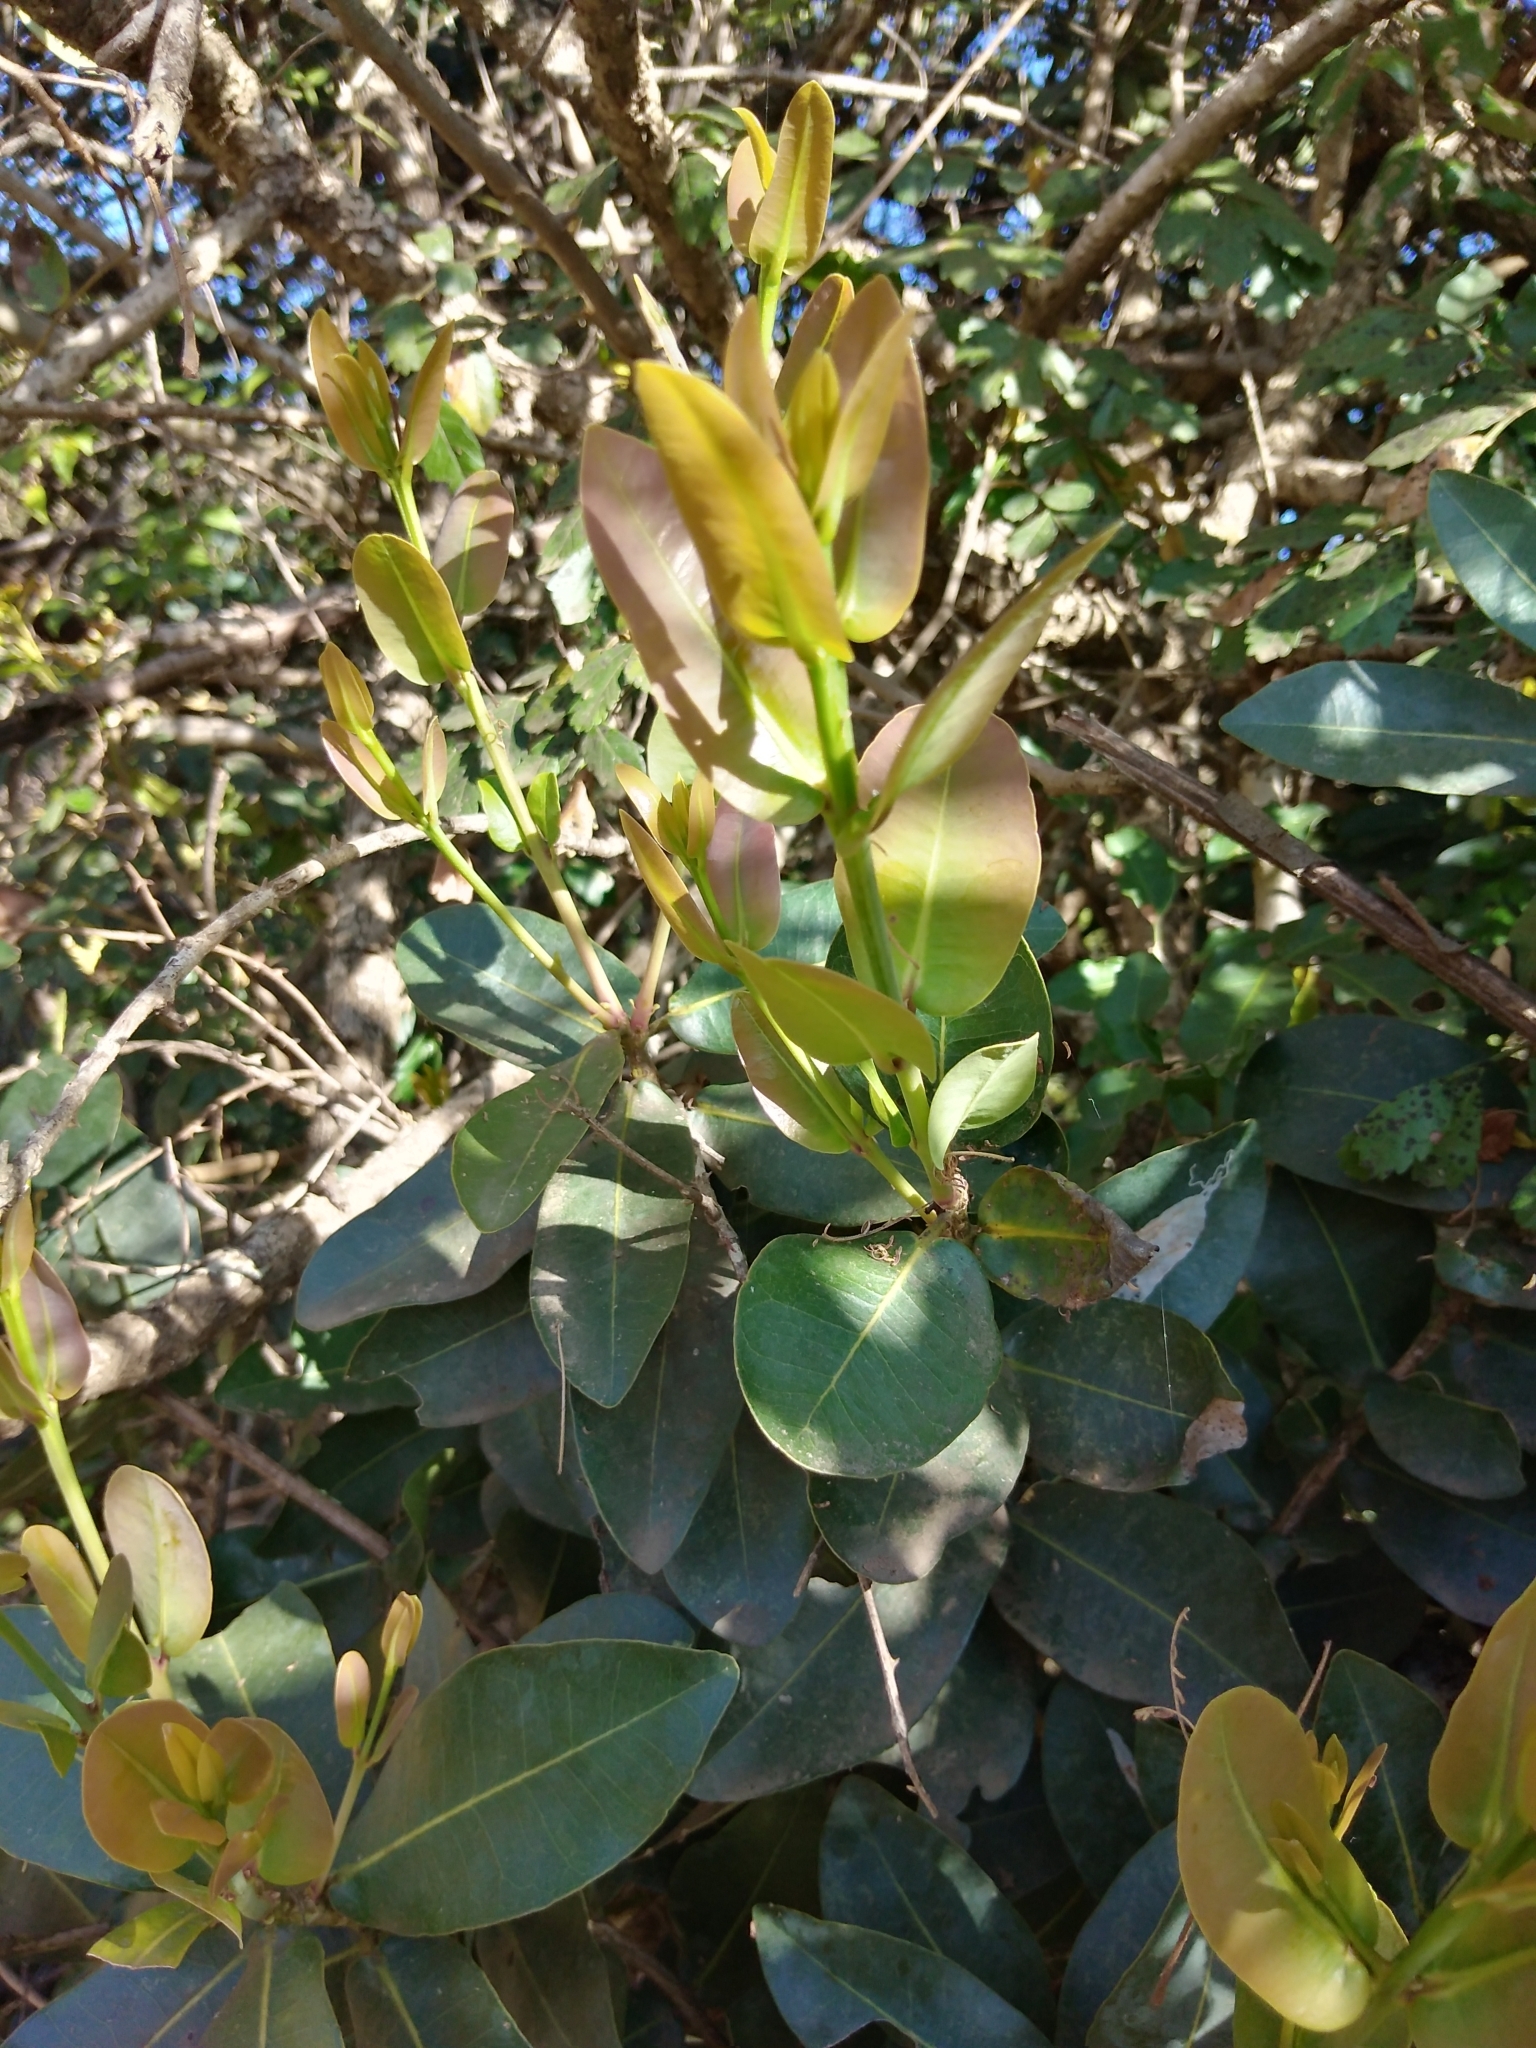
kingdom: Plantae
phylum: Tracheophyta
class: Magnoliopsida
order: Myrtales
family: Myrtaceae
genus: Syzygium
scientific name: Syzygium cordatum
